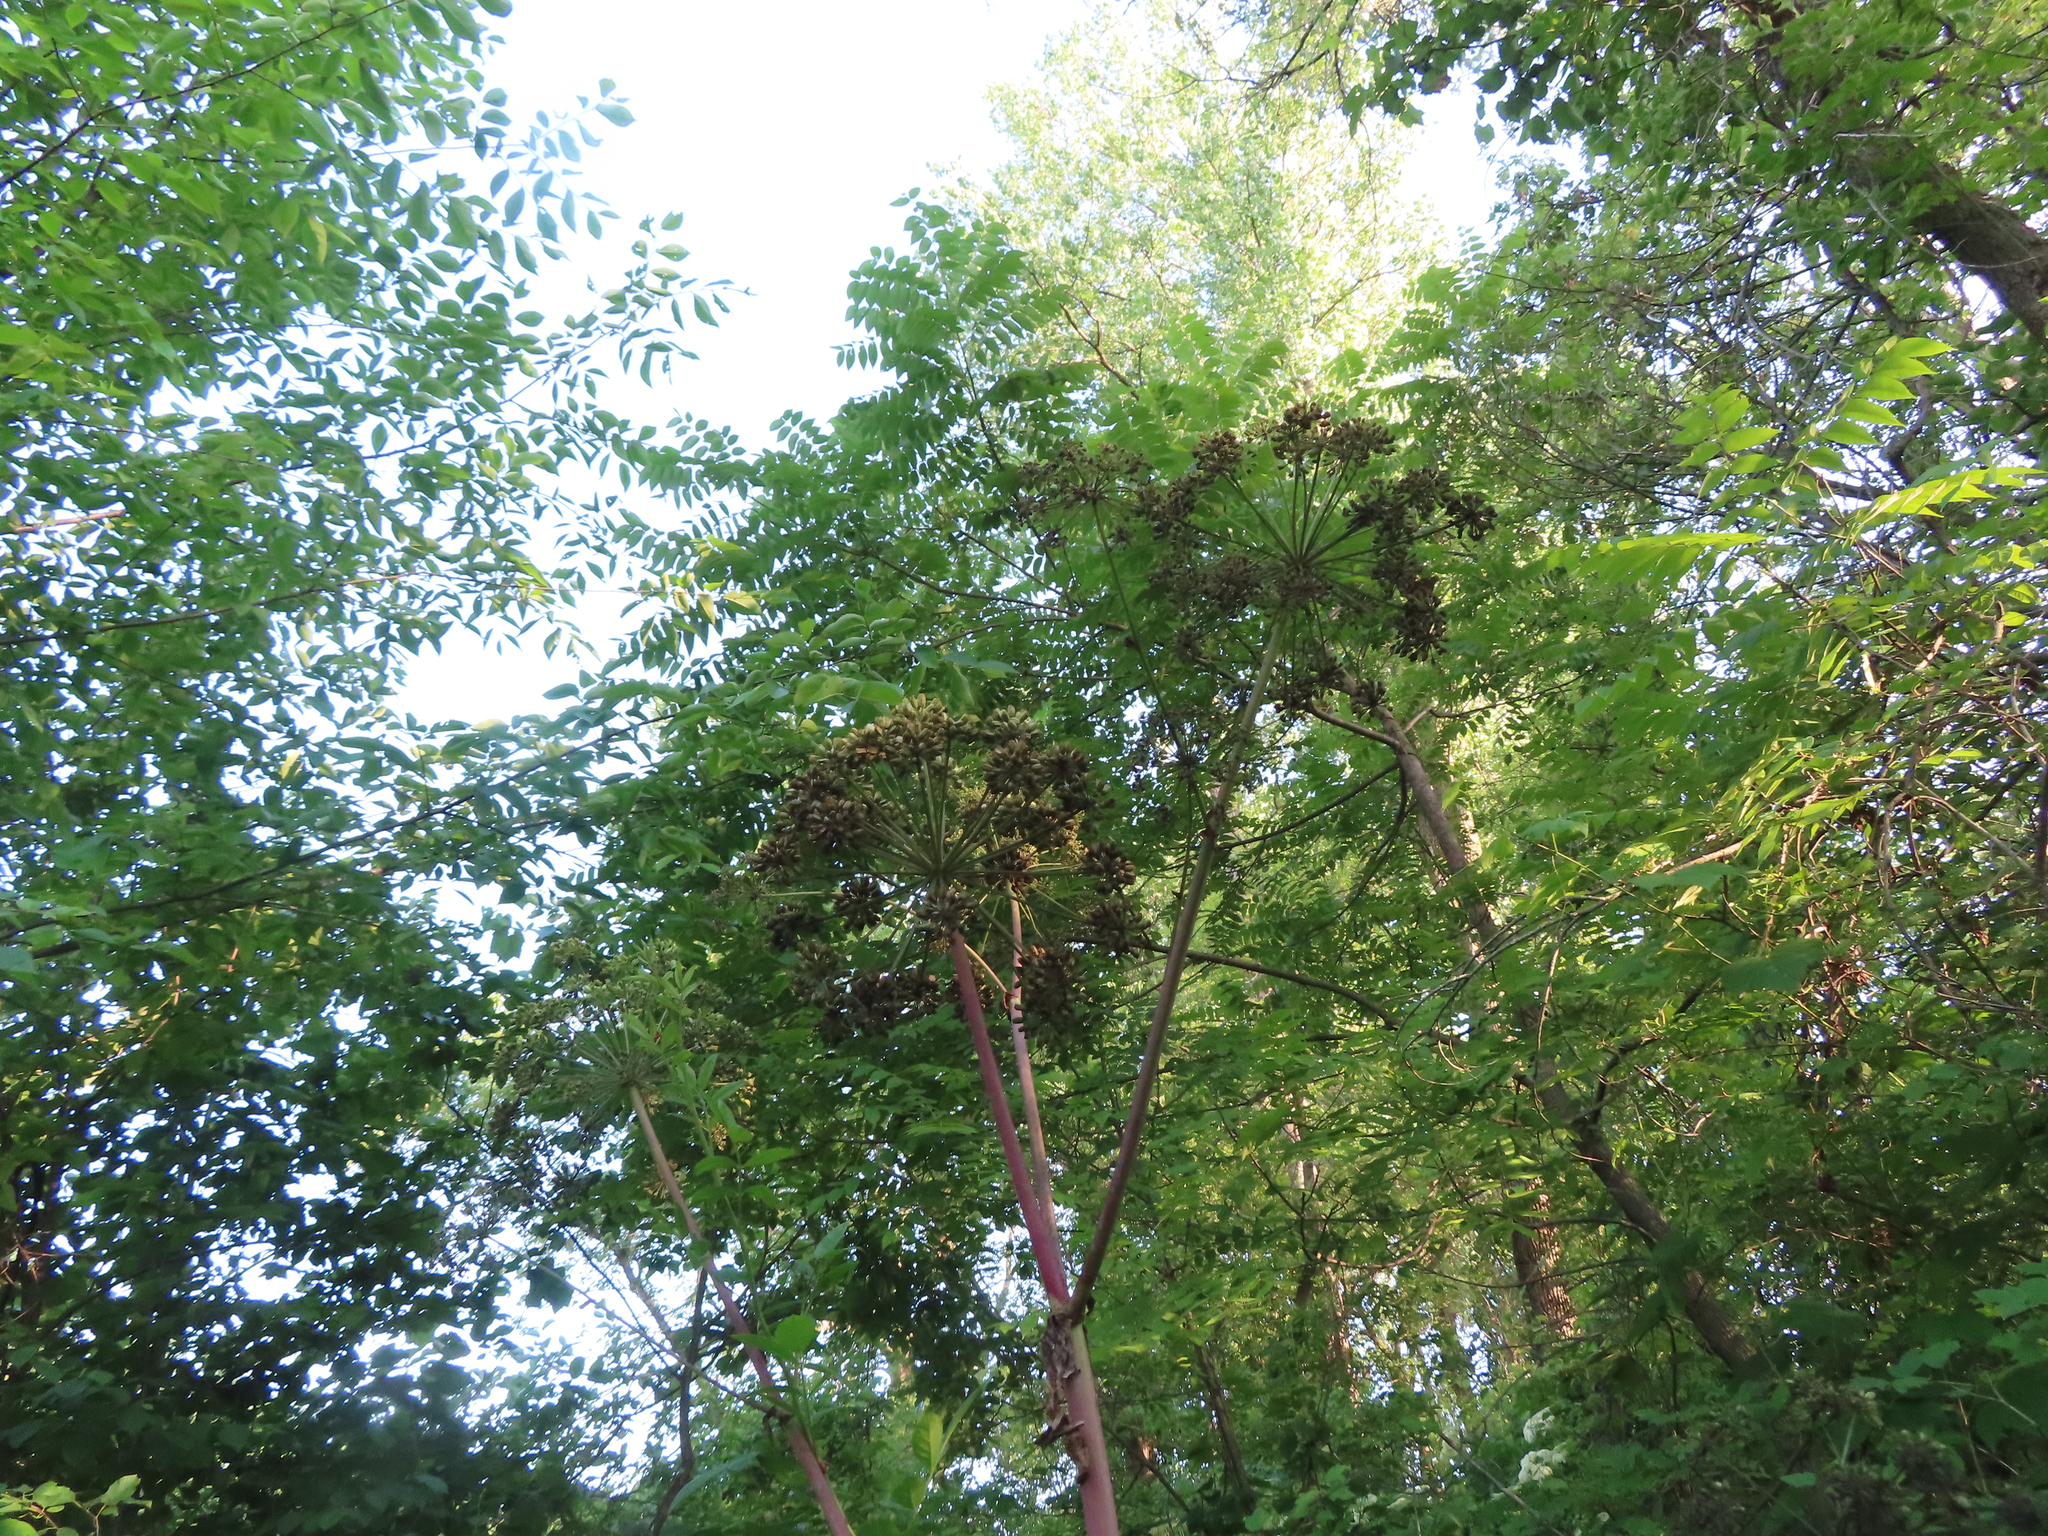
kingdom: Plantae
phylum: Tracheophyta
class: Magnoliopsida
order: Apiales
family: Apiaceae
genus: Angelica
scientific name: Angelica atropurpurea
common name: Great angelica
